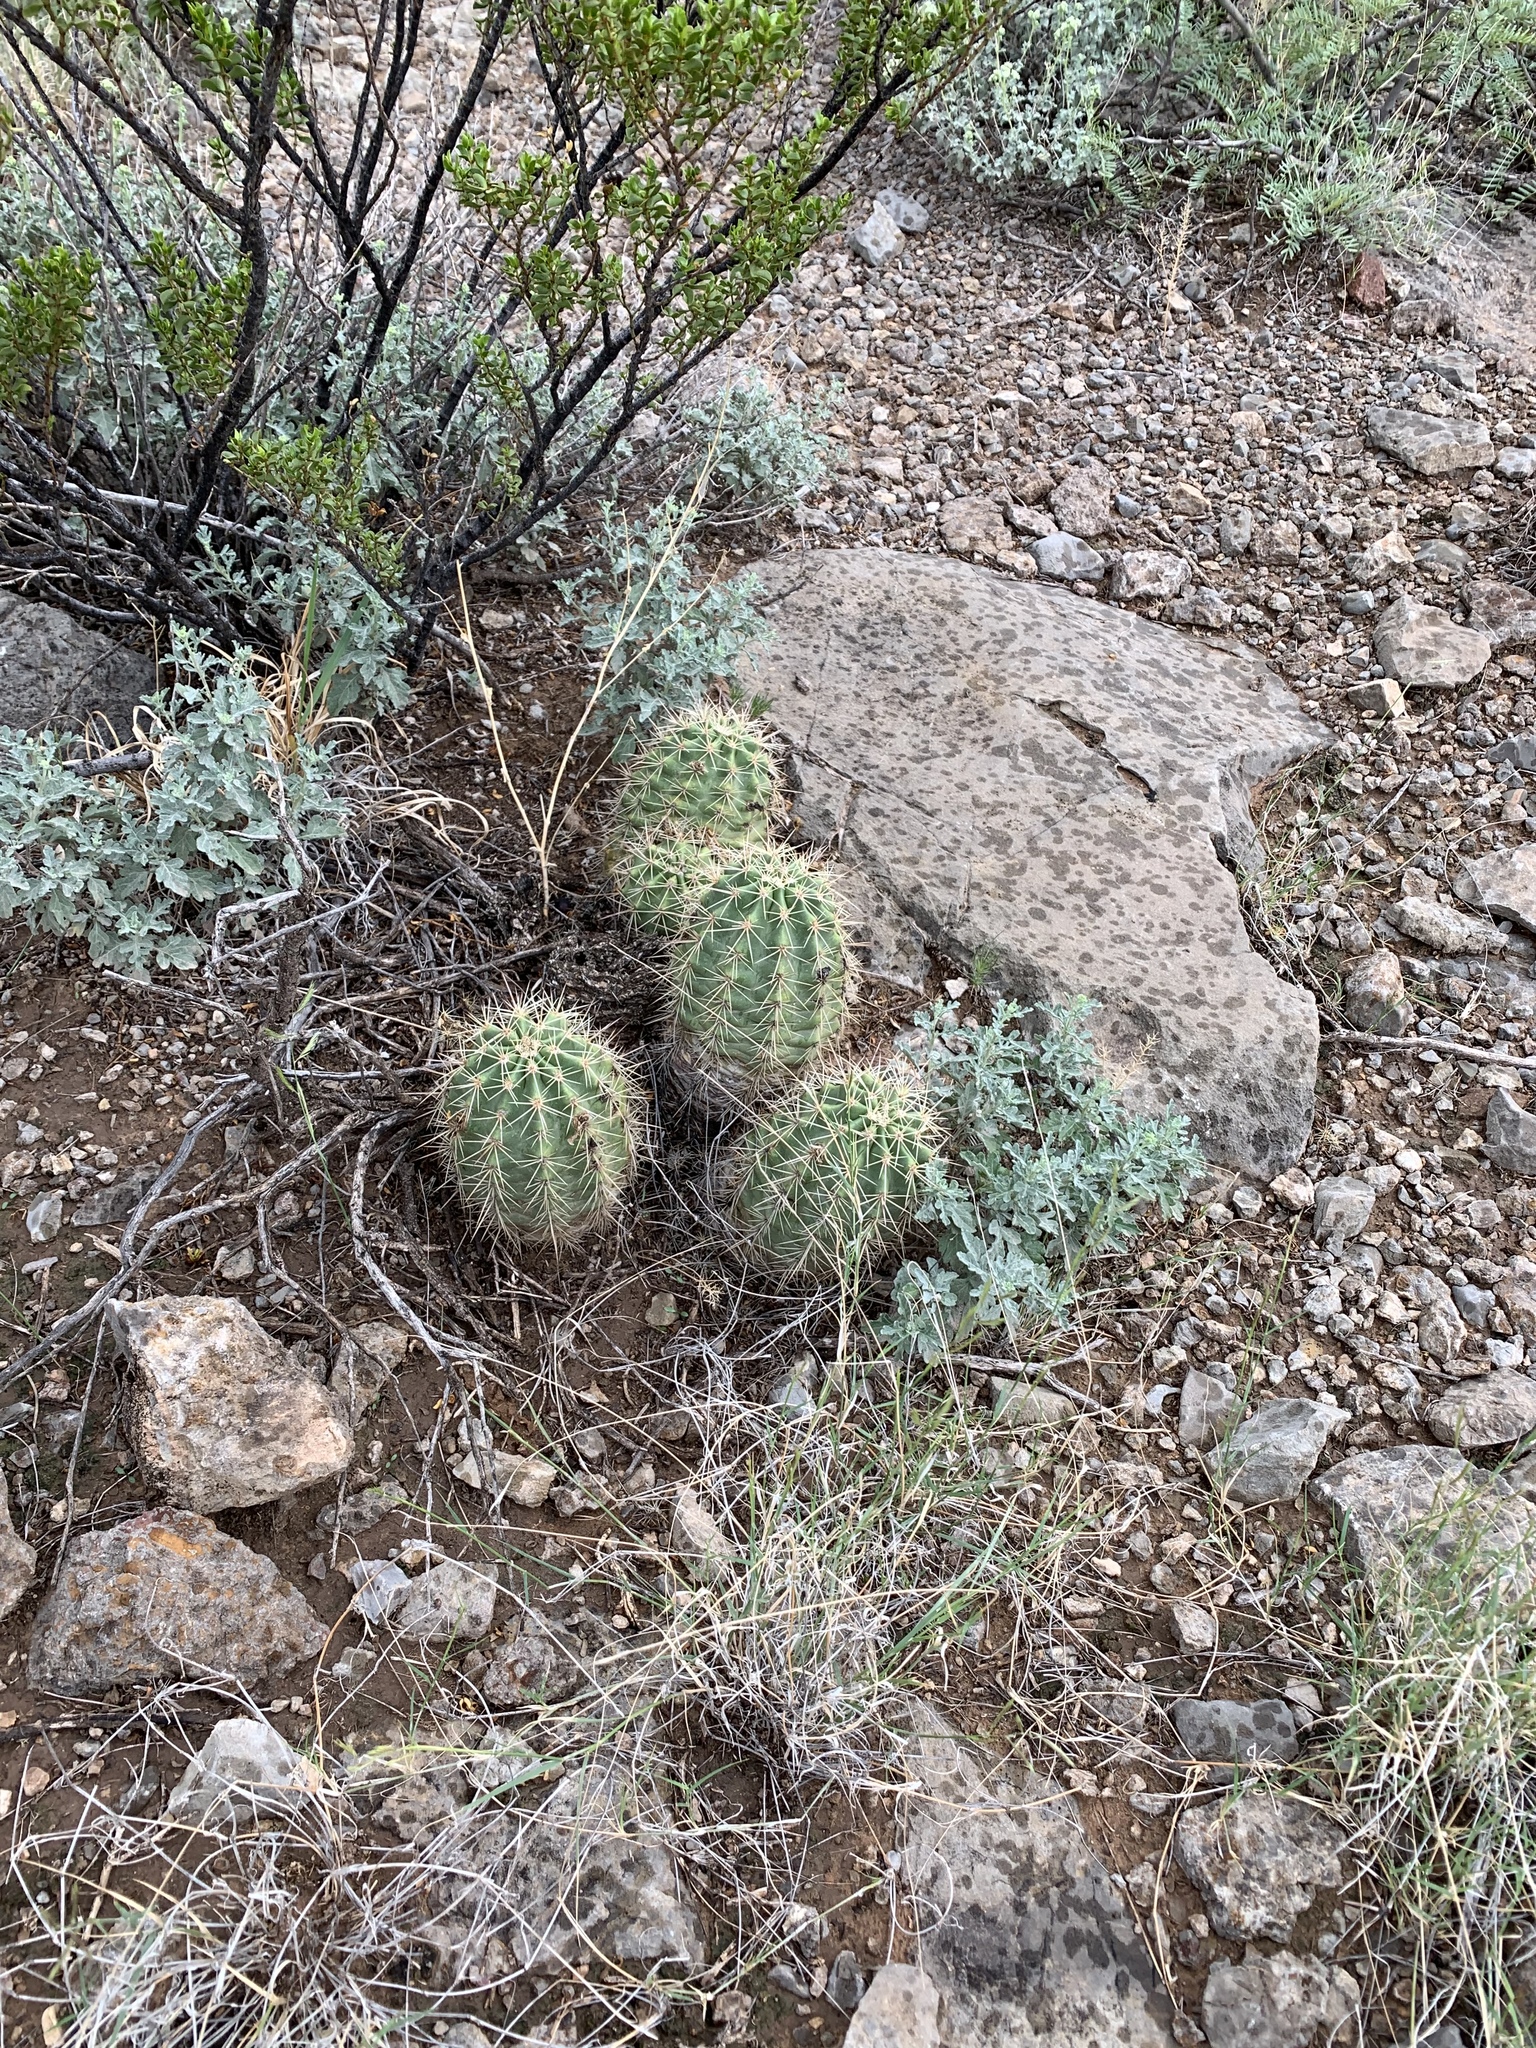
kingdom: Plantae
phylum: Tracheophyta
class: Magnoliopsida
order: Caryophyllales
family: Cactaceae
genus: Echinocereus
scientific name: Echinocereus coccineus
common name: Scarlet hedgehog cactus
